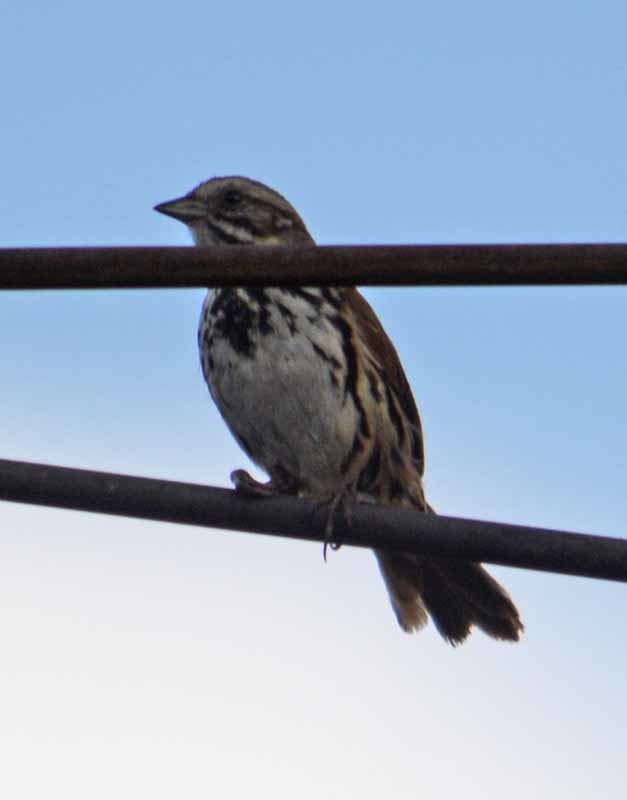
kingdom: Animalia
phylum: Chordata
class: Aves
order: Passeriformes
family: Passerellidae
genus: Melospiza
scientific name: Melospiza melodia
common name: Song sparrow
